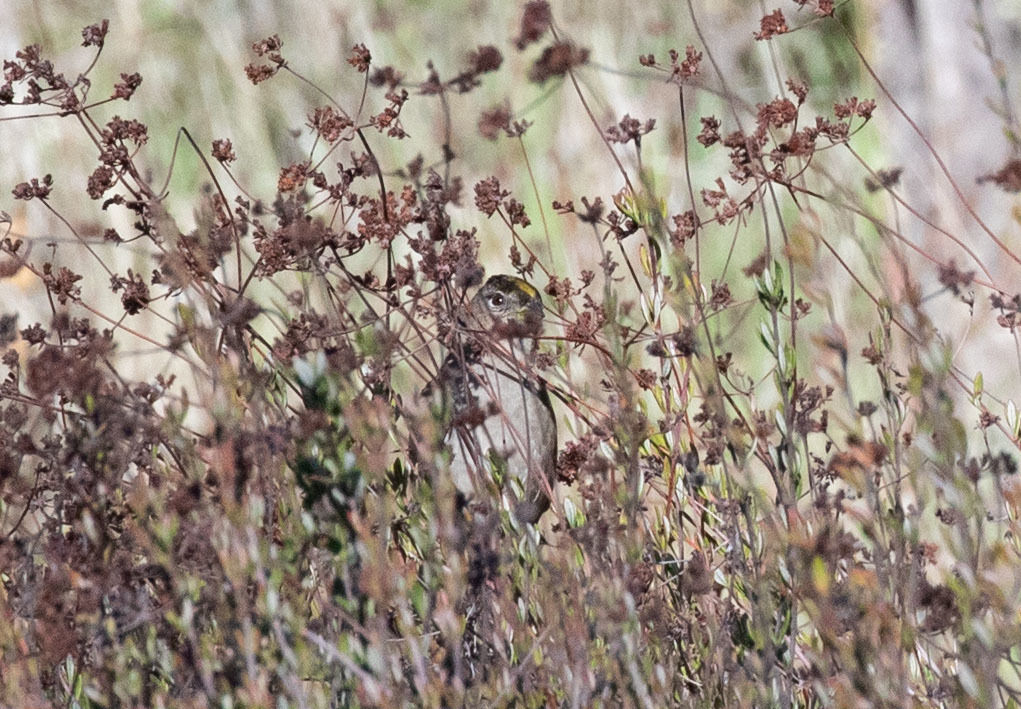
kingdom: Animalia
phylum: Chordata
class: Aves
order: Passeriformes
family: Passerellidae
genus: Zonotrichia
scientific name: Zonotrichia atricapilla
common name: Golden-crowned sparrow
